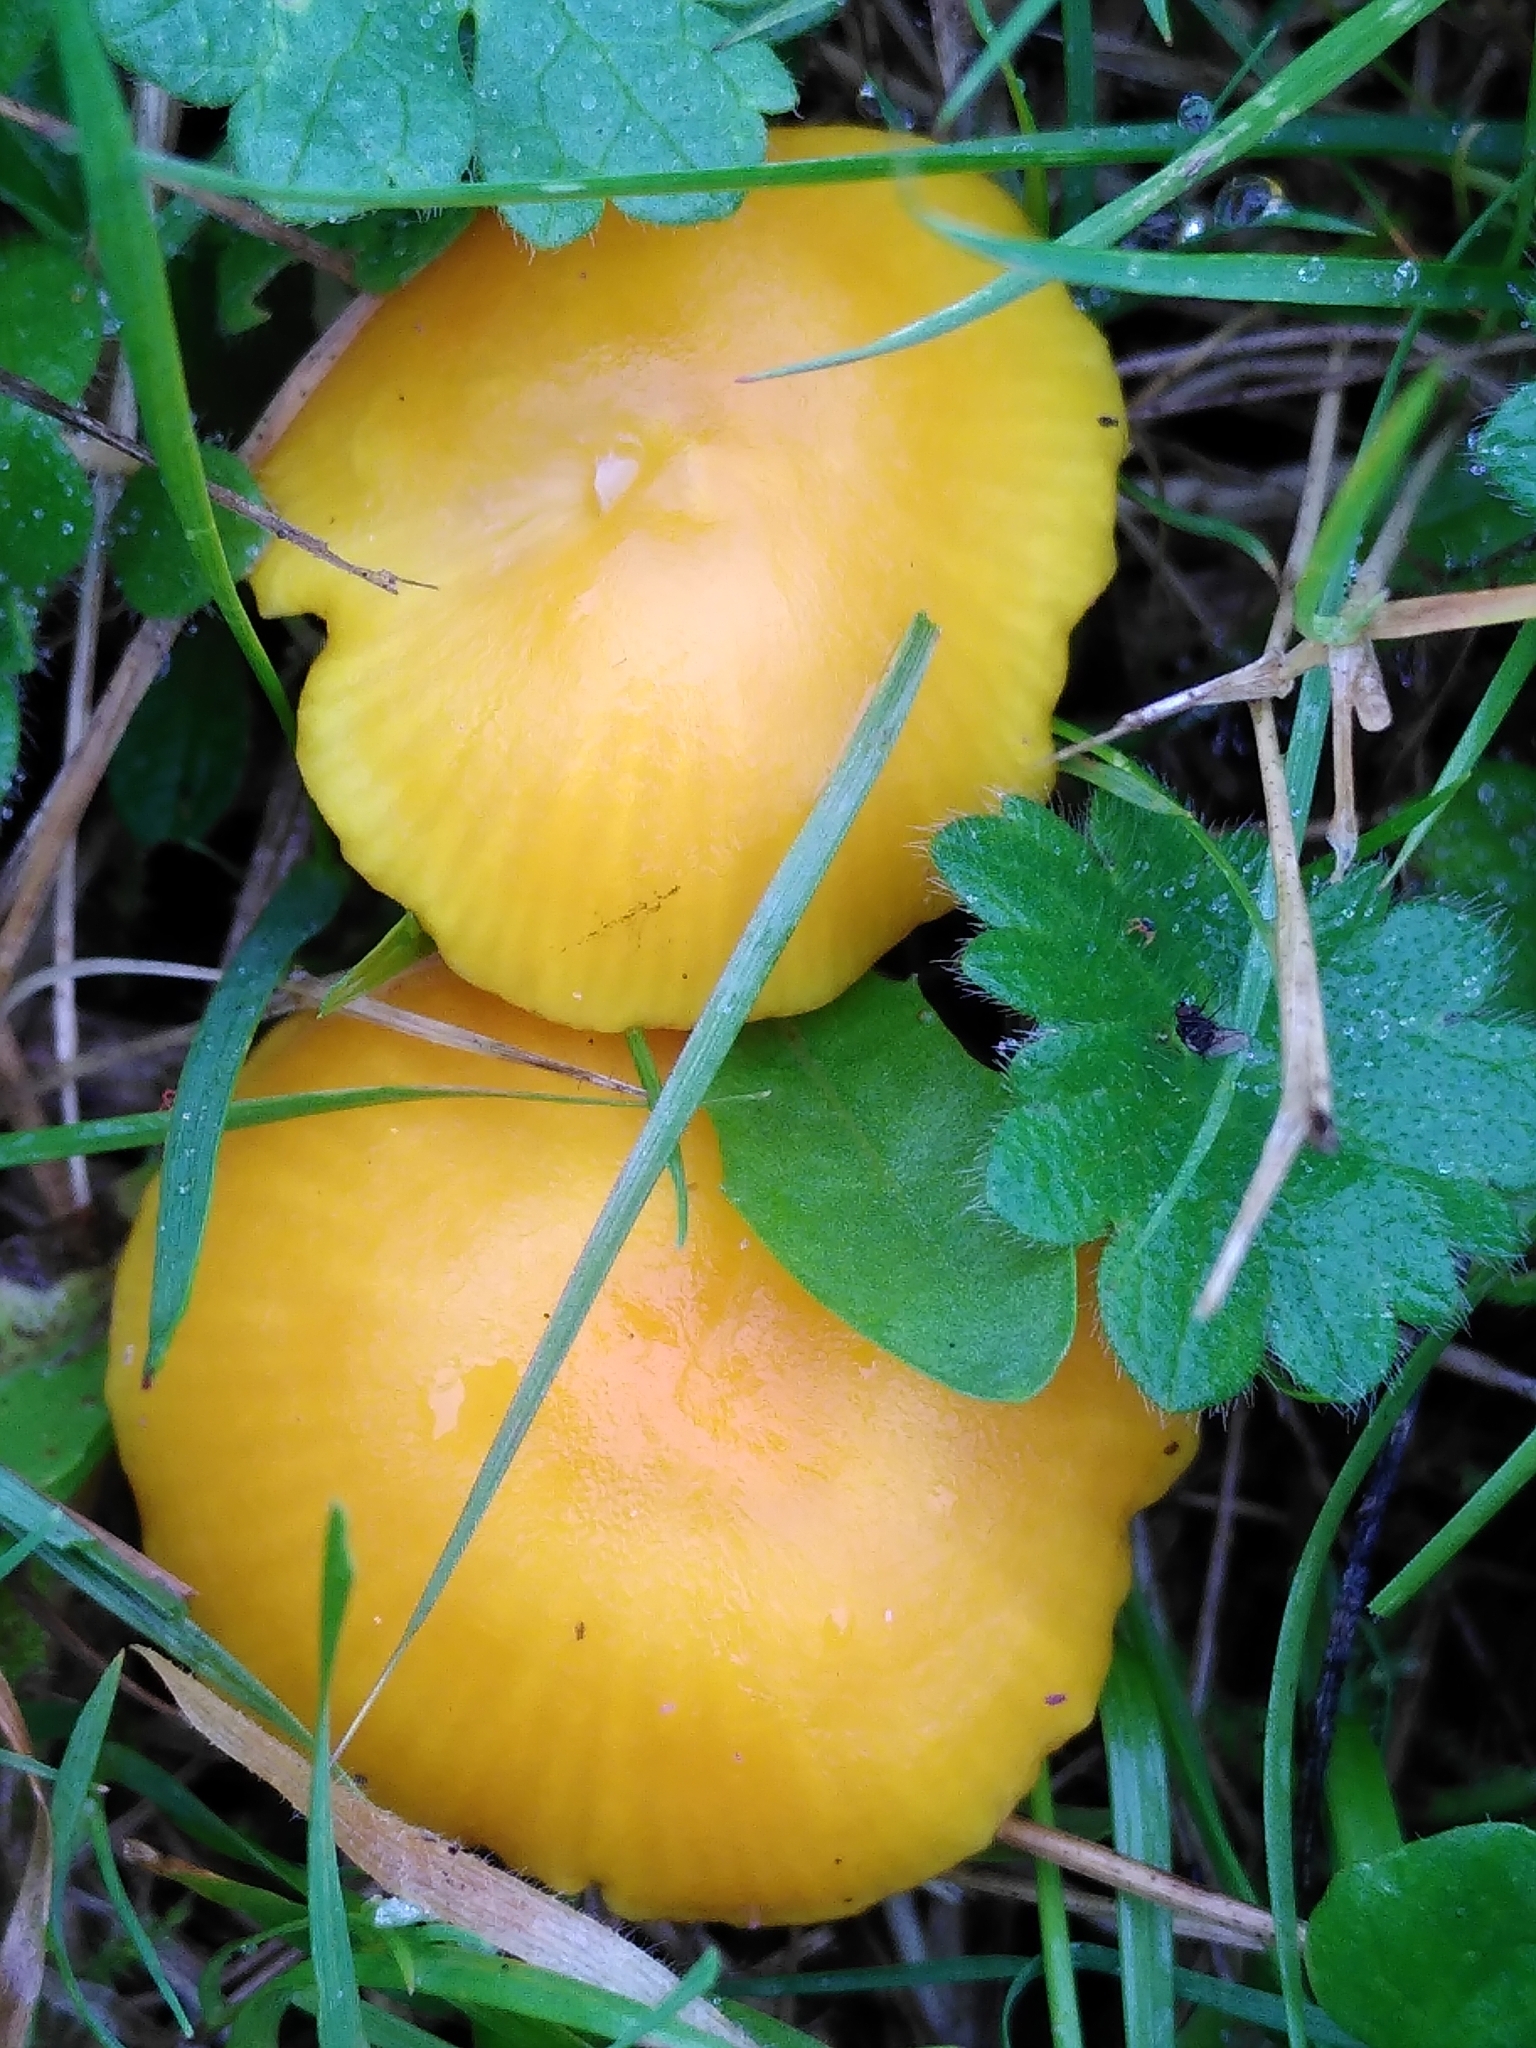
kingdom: Fungi
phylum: Basidiomycota
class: Agaricomycetes
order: Agaricales
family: Hygrophoraceae
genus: Hygrocybe
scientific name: Hygrocybe ceracea
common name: Butter waxcap
